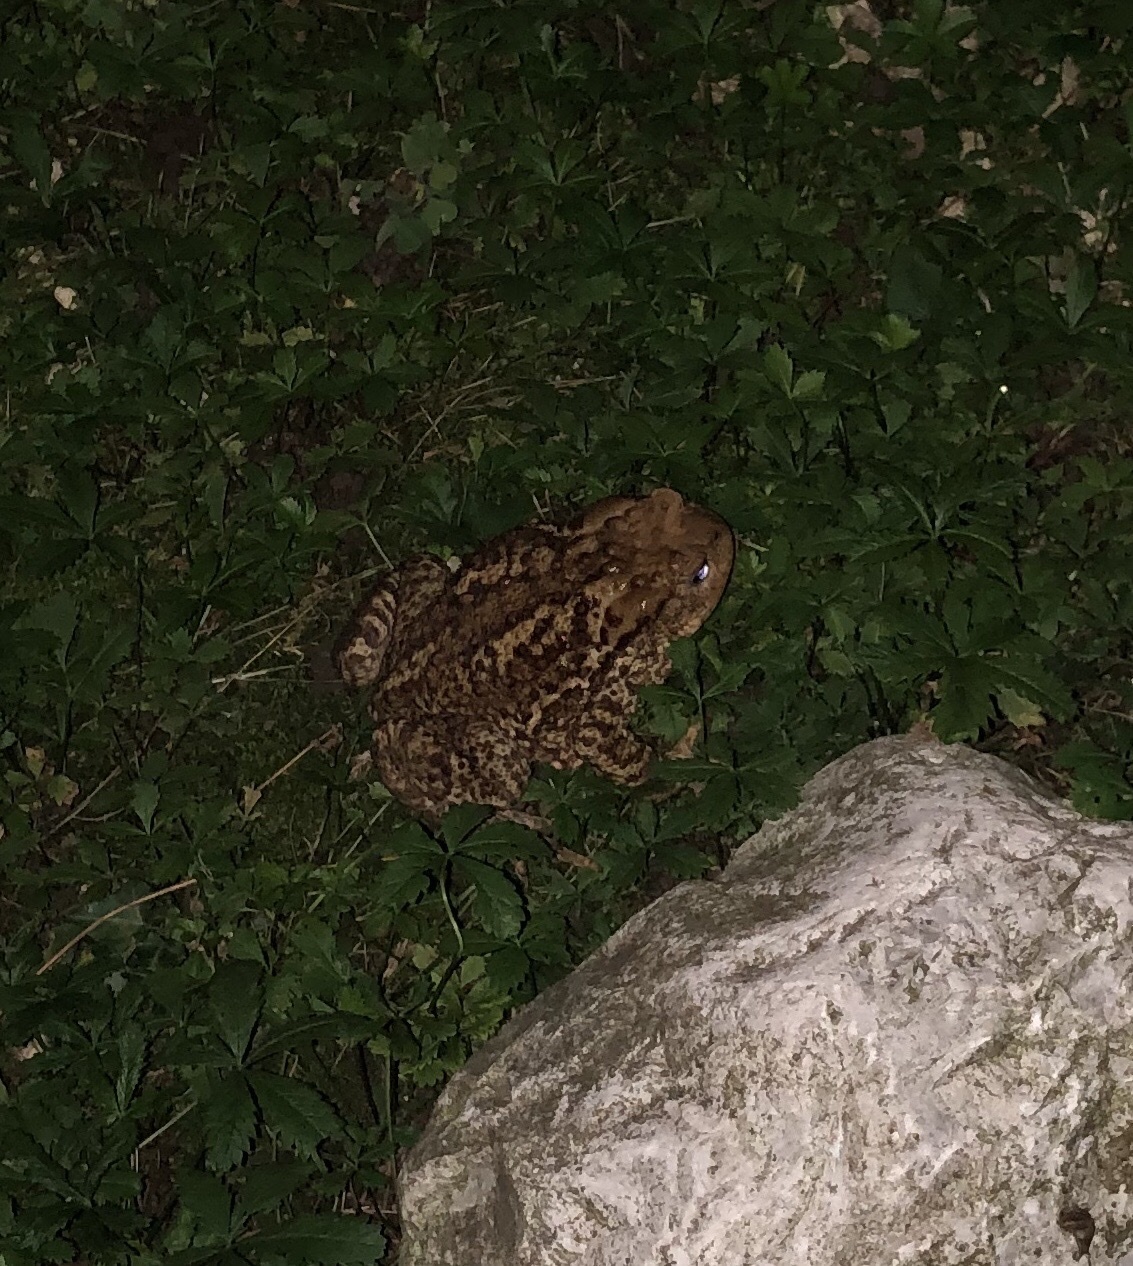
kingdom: Animalia
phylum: Chordata
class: Amphibia
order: Anura
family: Bufonidae
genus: Bufo
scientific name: Bufo bufo
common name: Common toad
